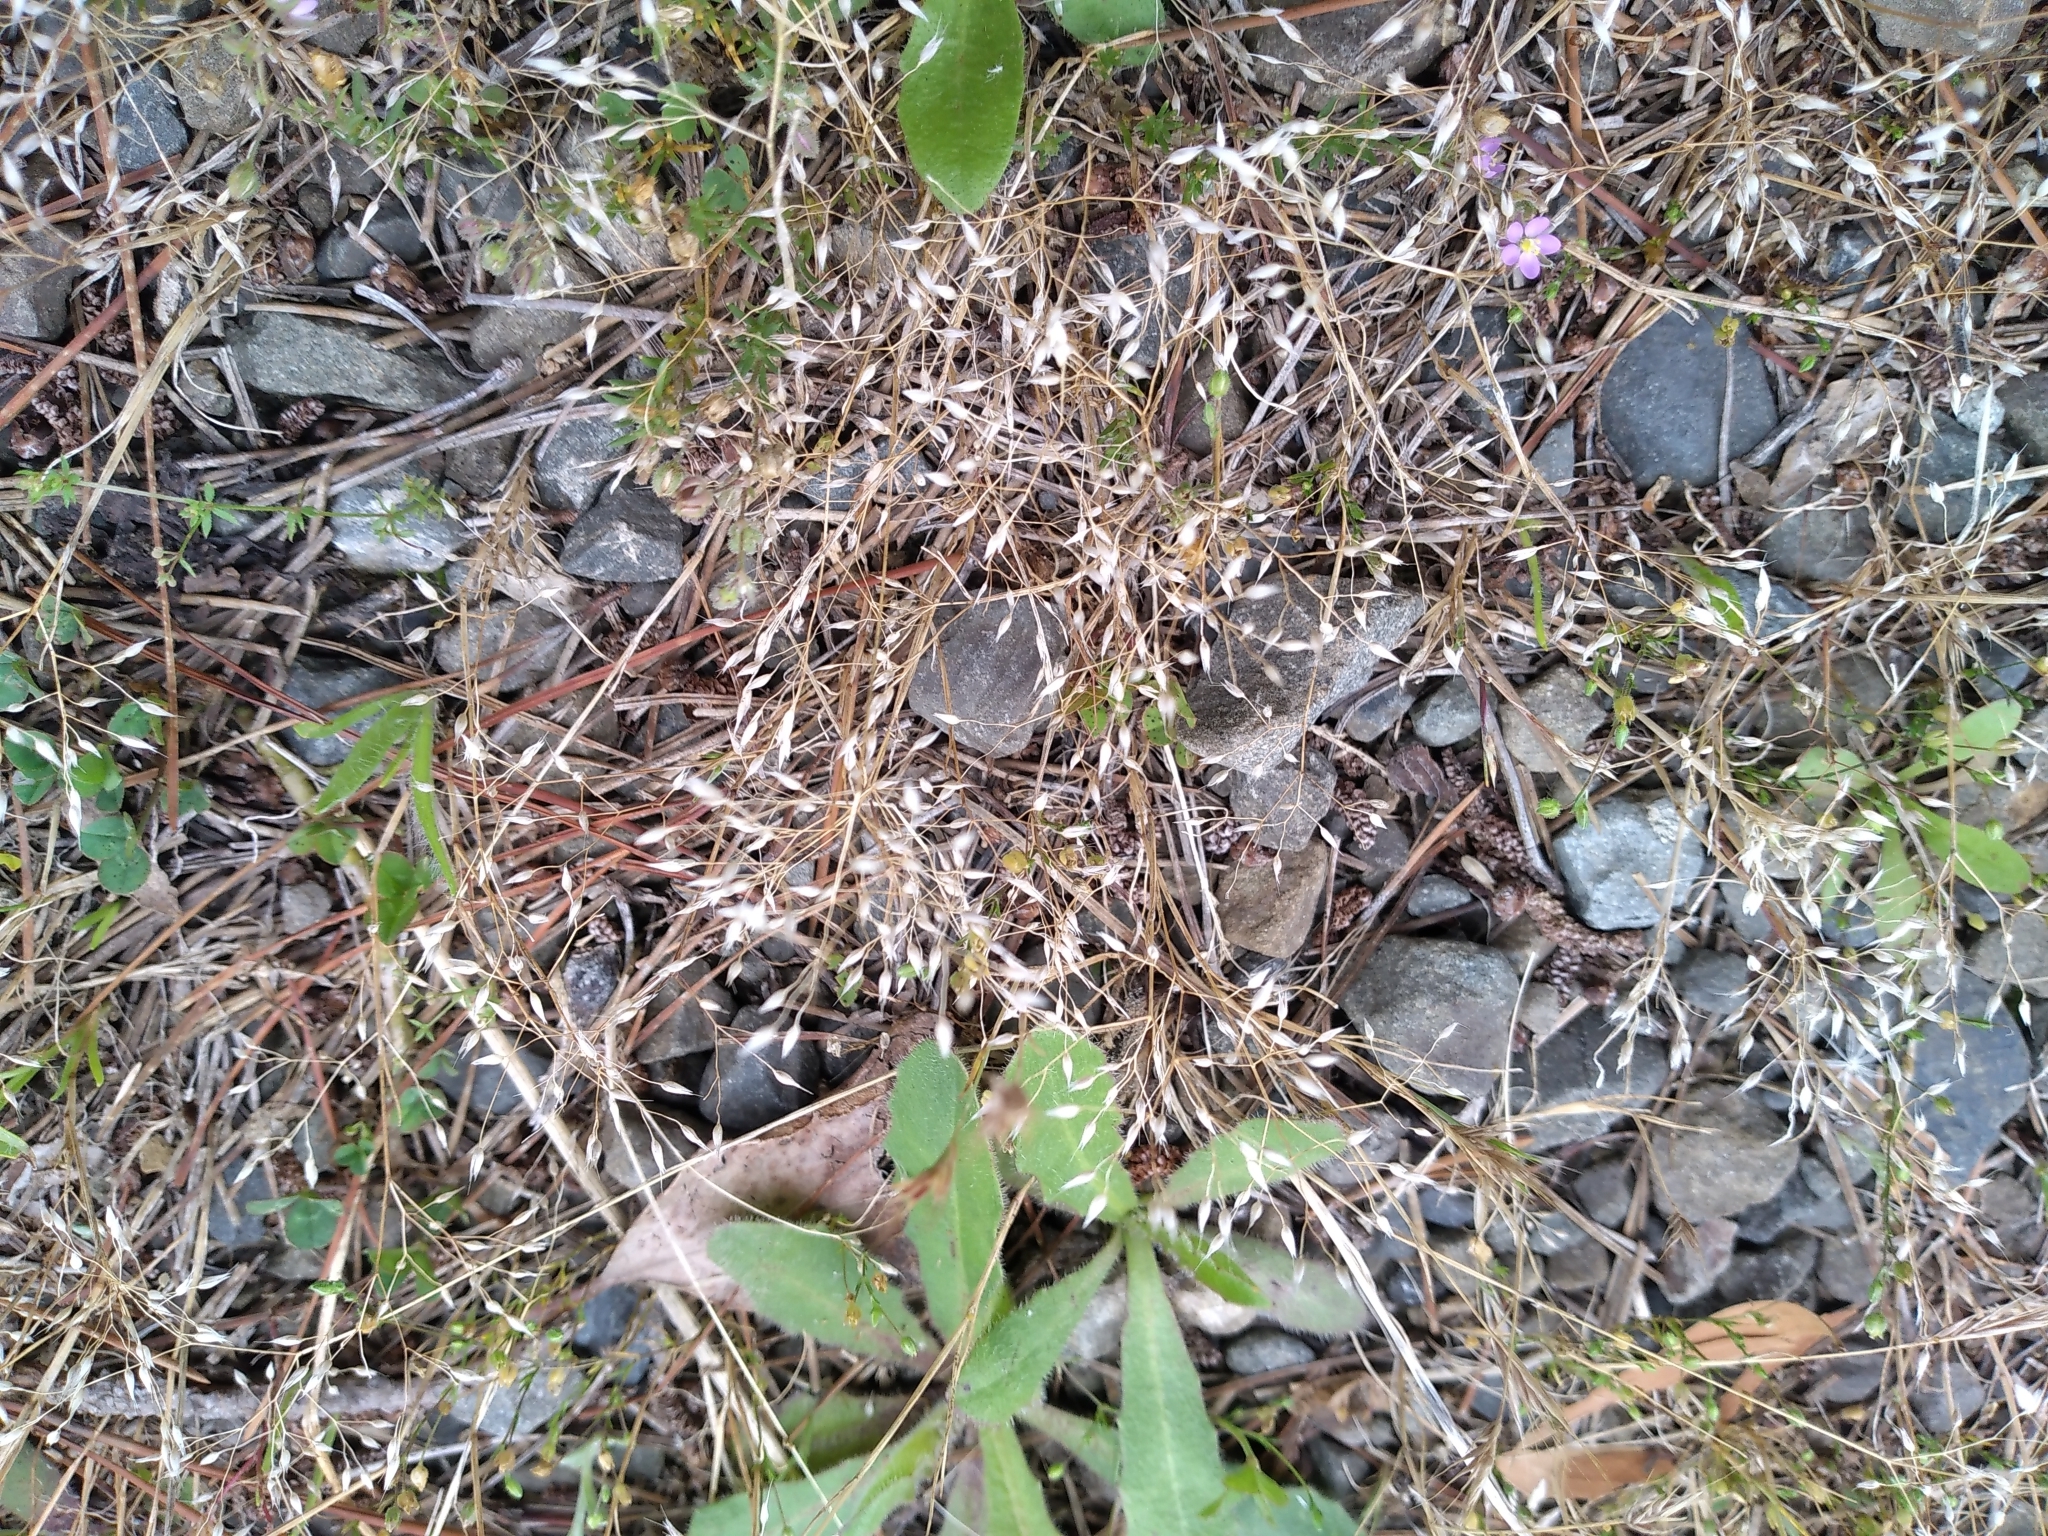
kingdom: Plantae
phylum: Tracheophyta
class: Liliopsida
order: Poales
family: Poaceae
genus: Aira
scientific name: Aira caryophyllea
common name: Silver hairgrass
